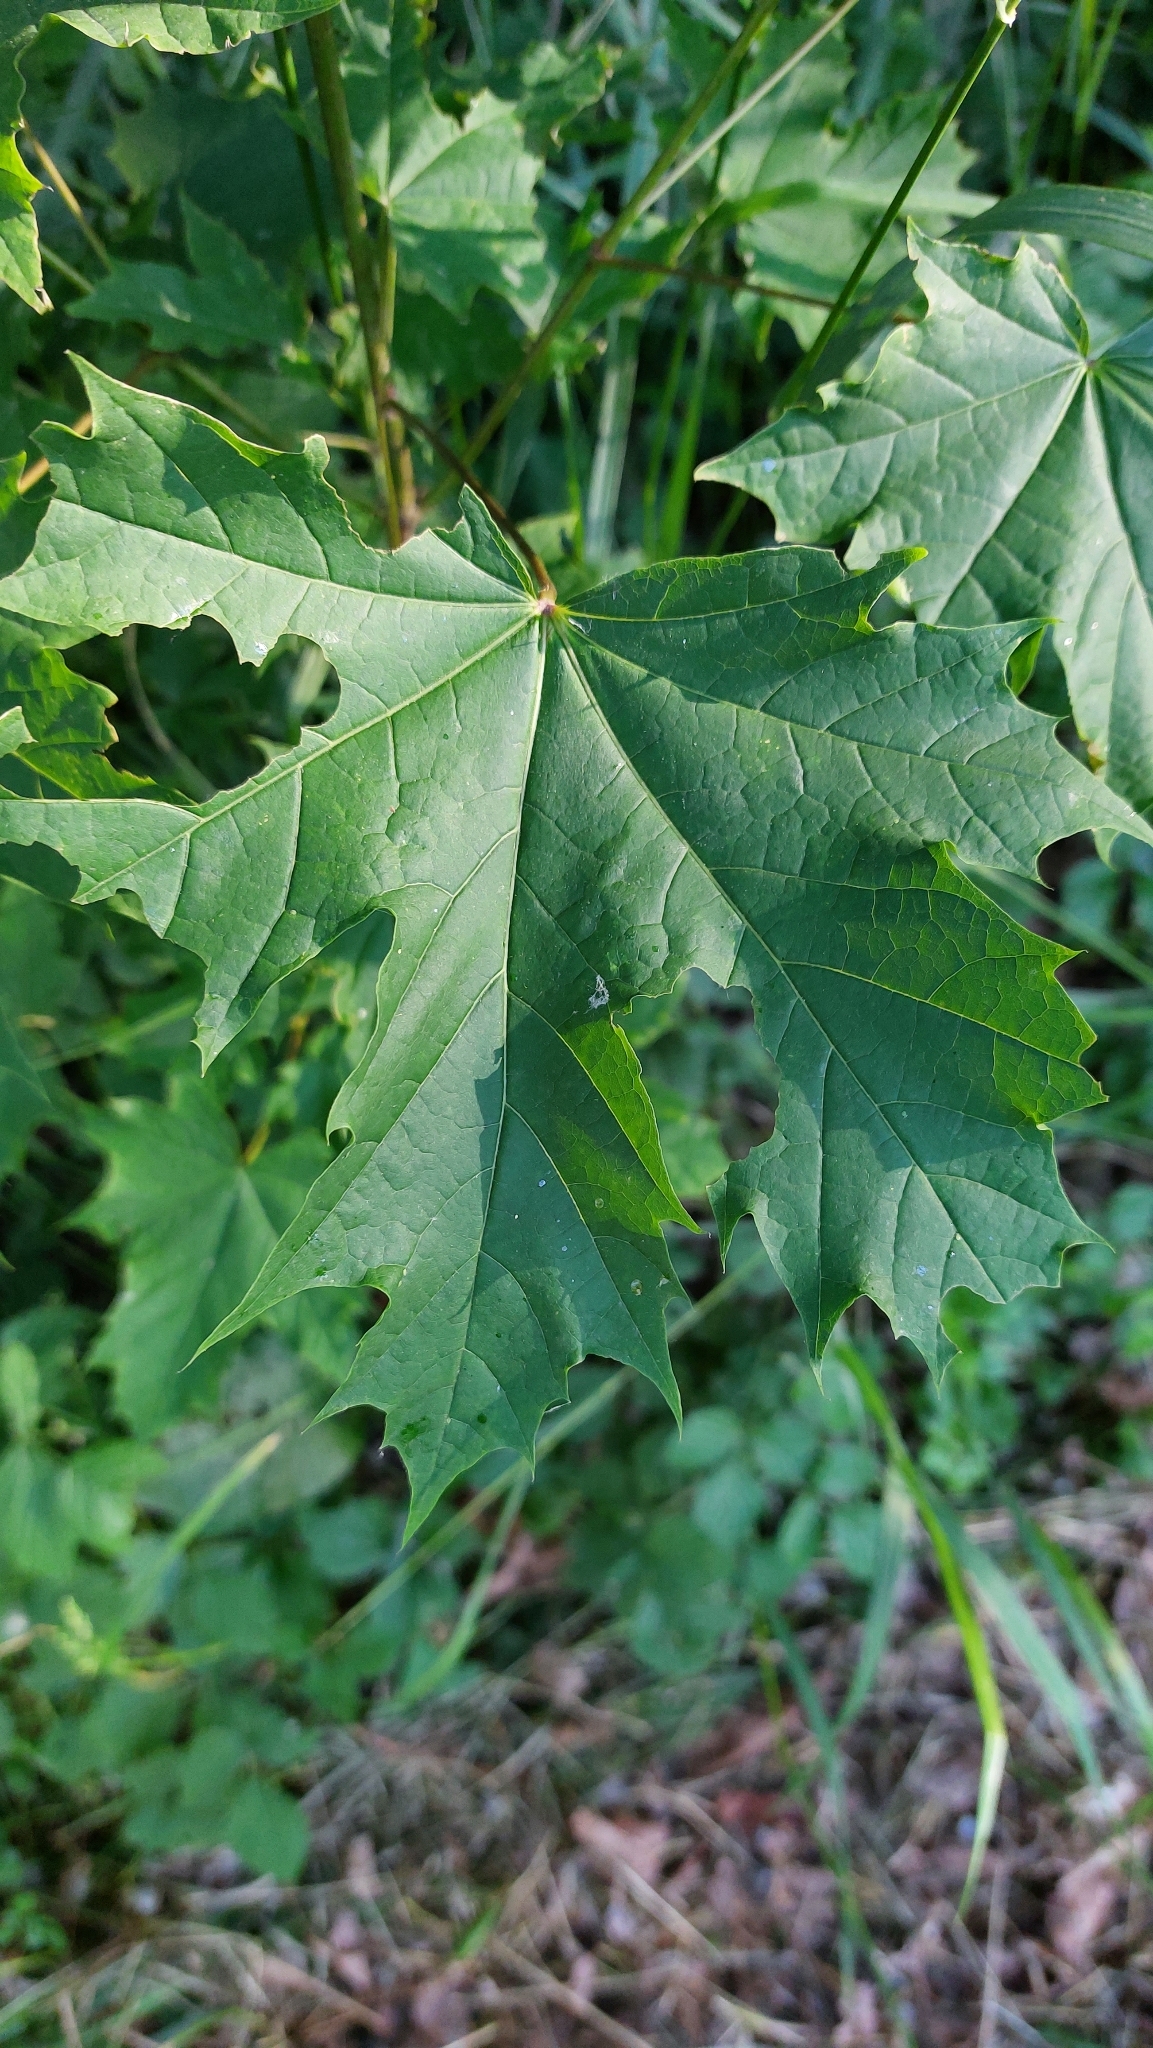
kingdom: Plantae
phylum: Tracheophyta
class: Magnoliopsida
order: Sapindales
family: Sapindaceae
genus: Acer
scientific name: Acer platanoides
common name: Norway maple
